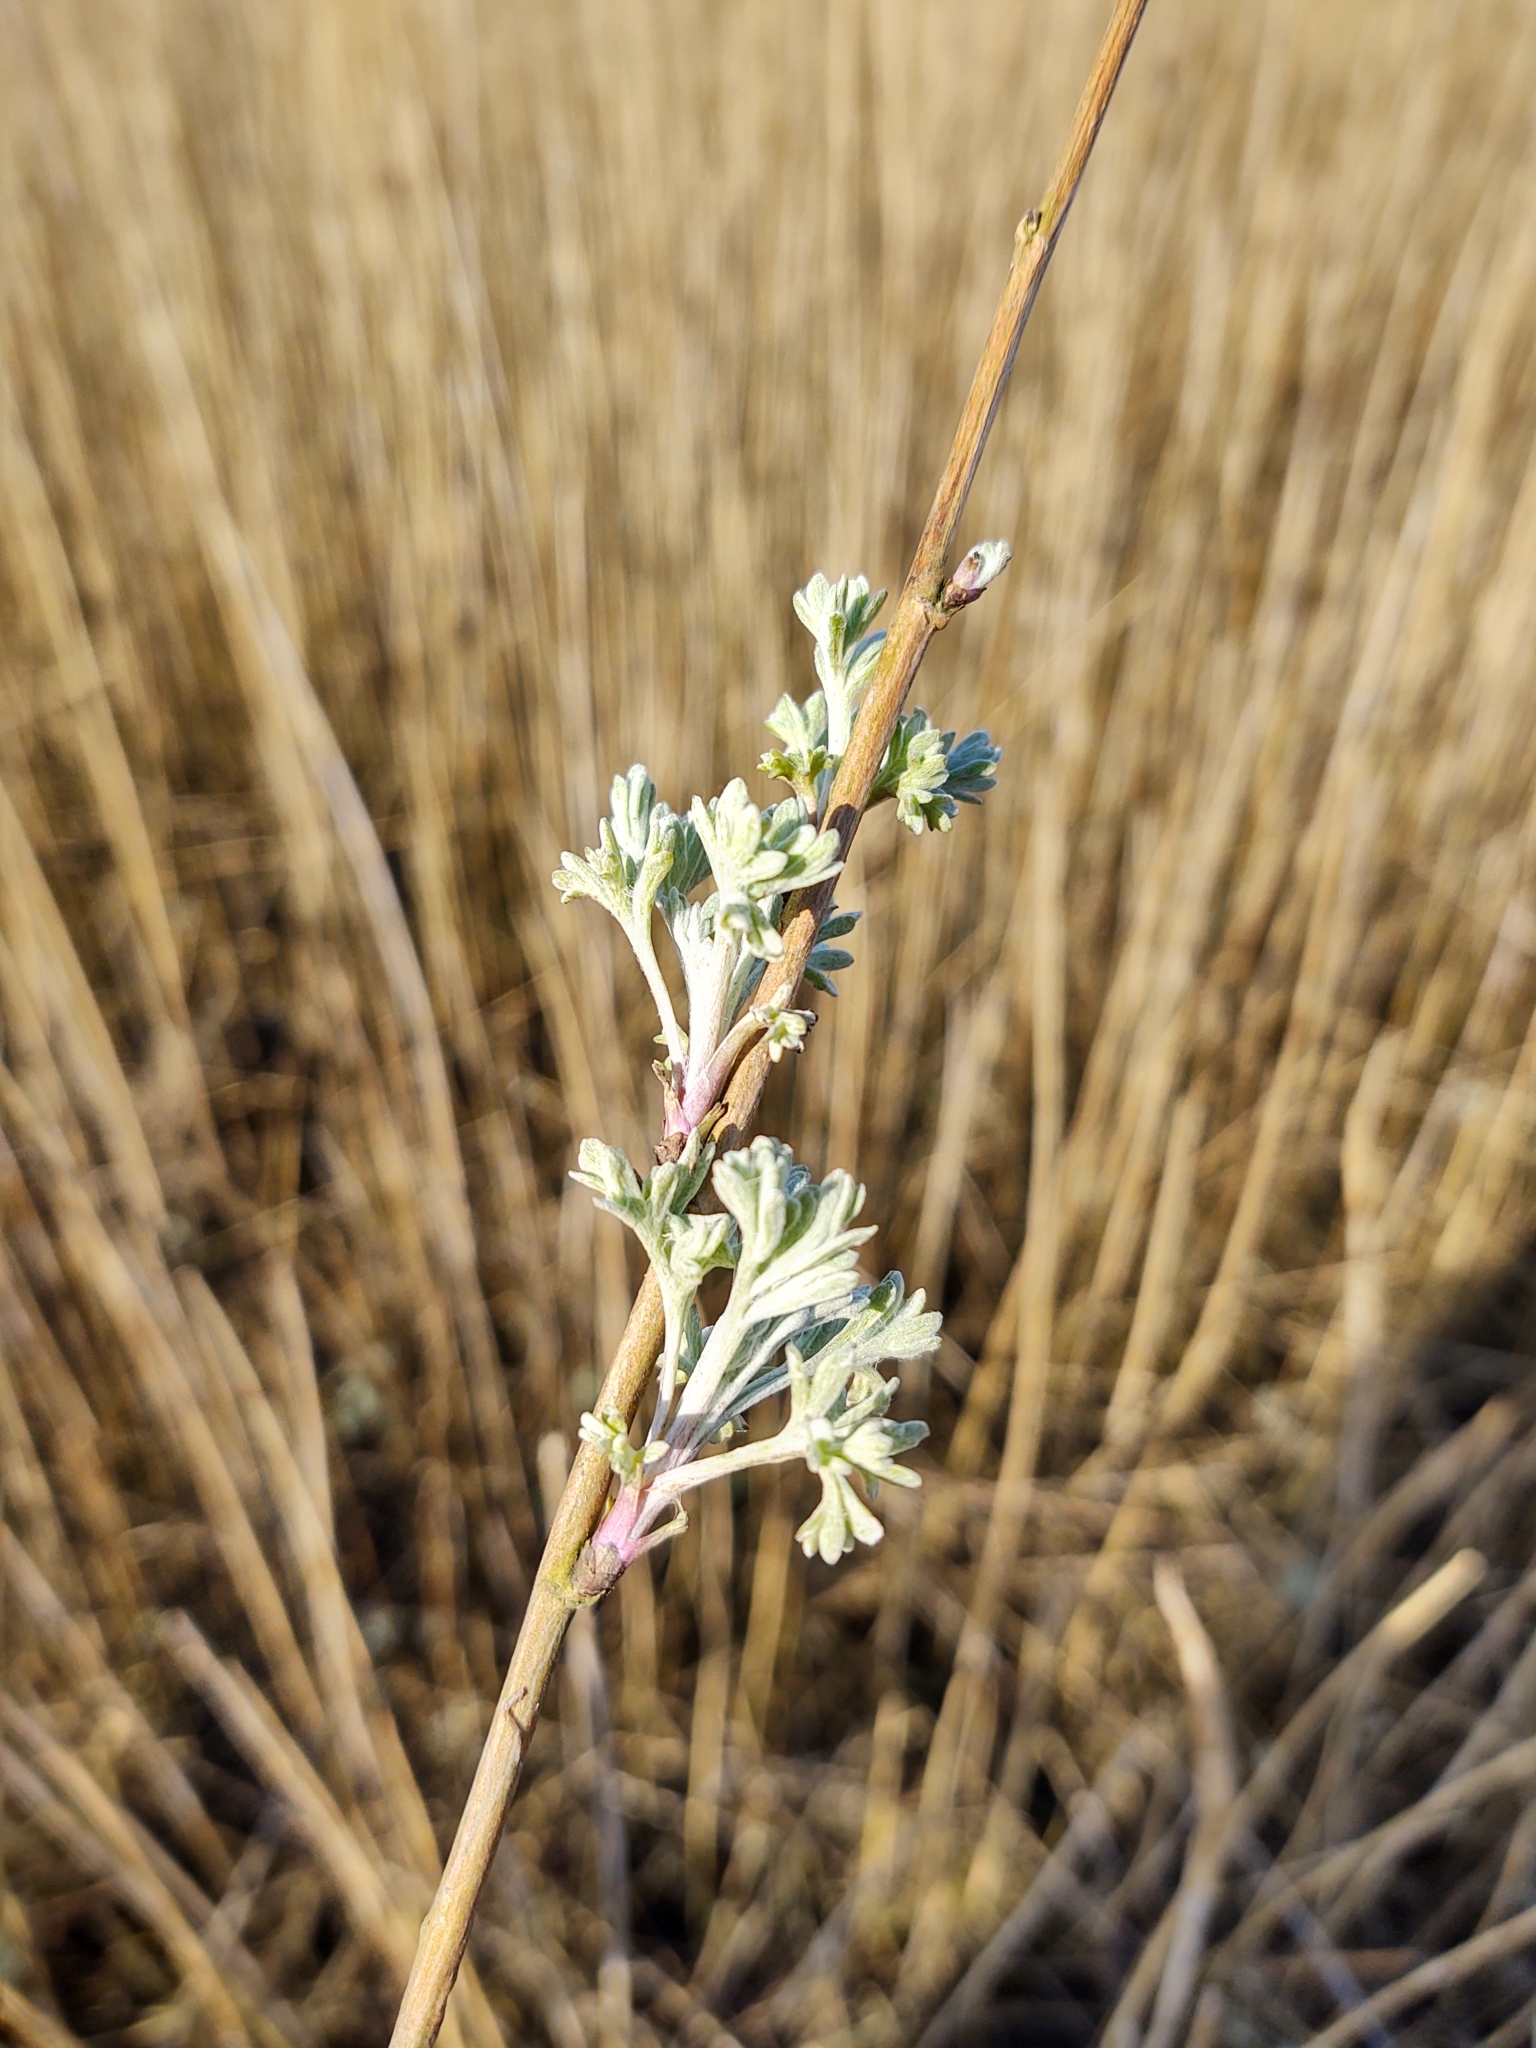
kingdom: Plantae
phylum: Tracheophyta
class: Magnoliopsida
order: Asterales
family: Asteraceae
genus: Artemisia
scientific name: Artemisia maritima
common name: Wormseed
